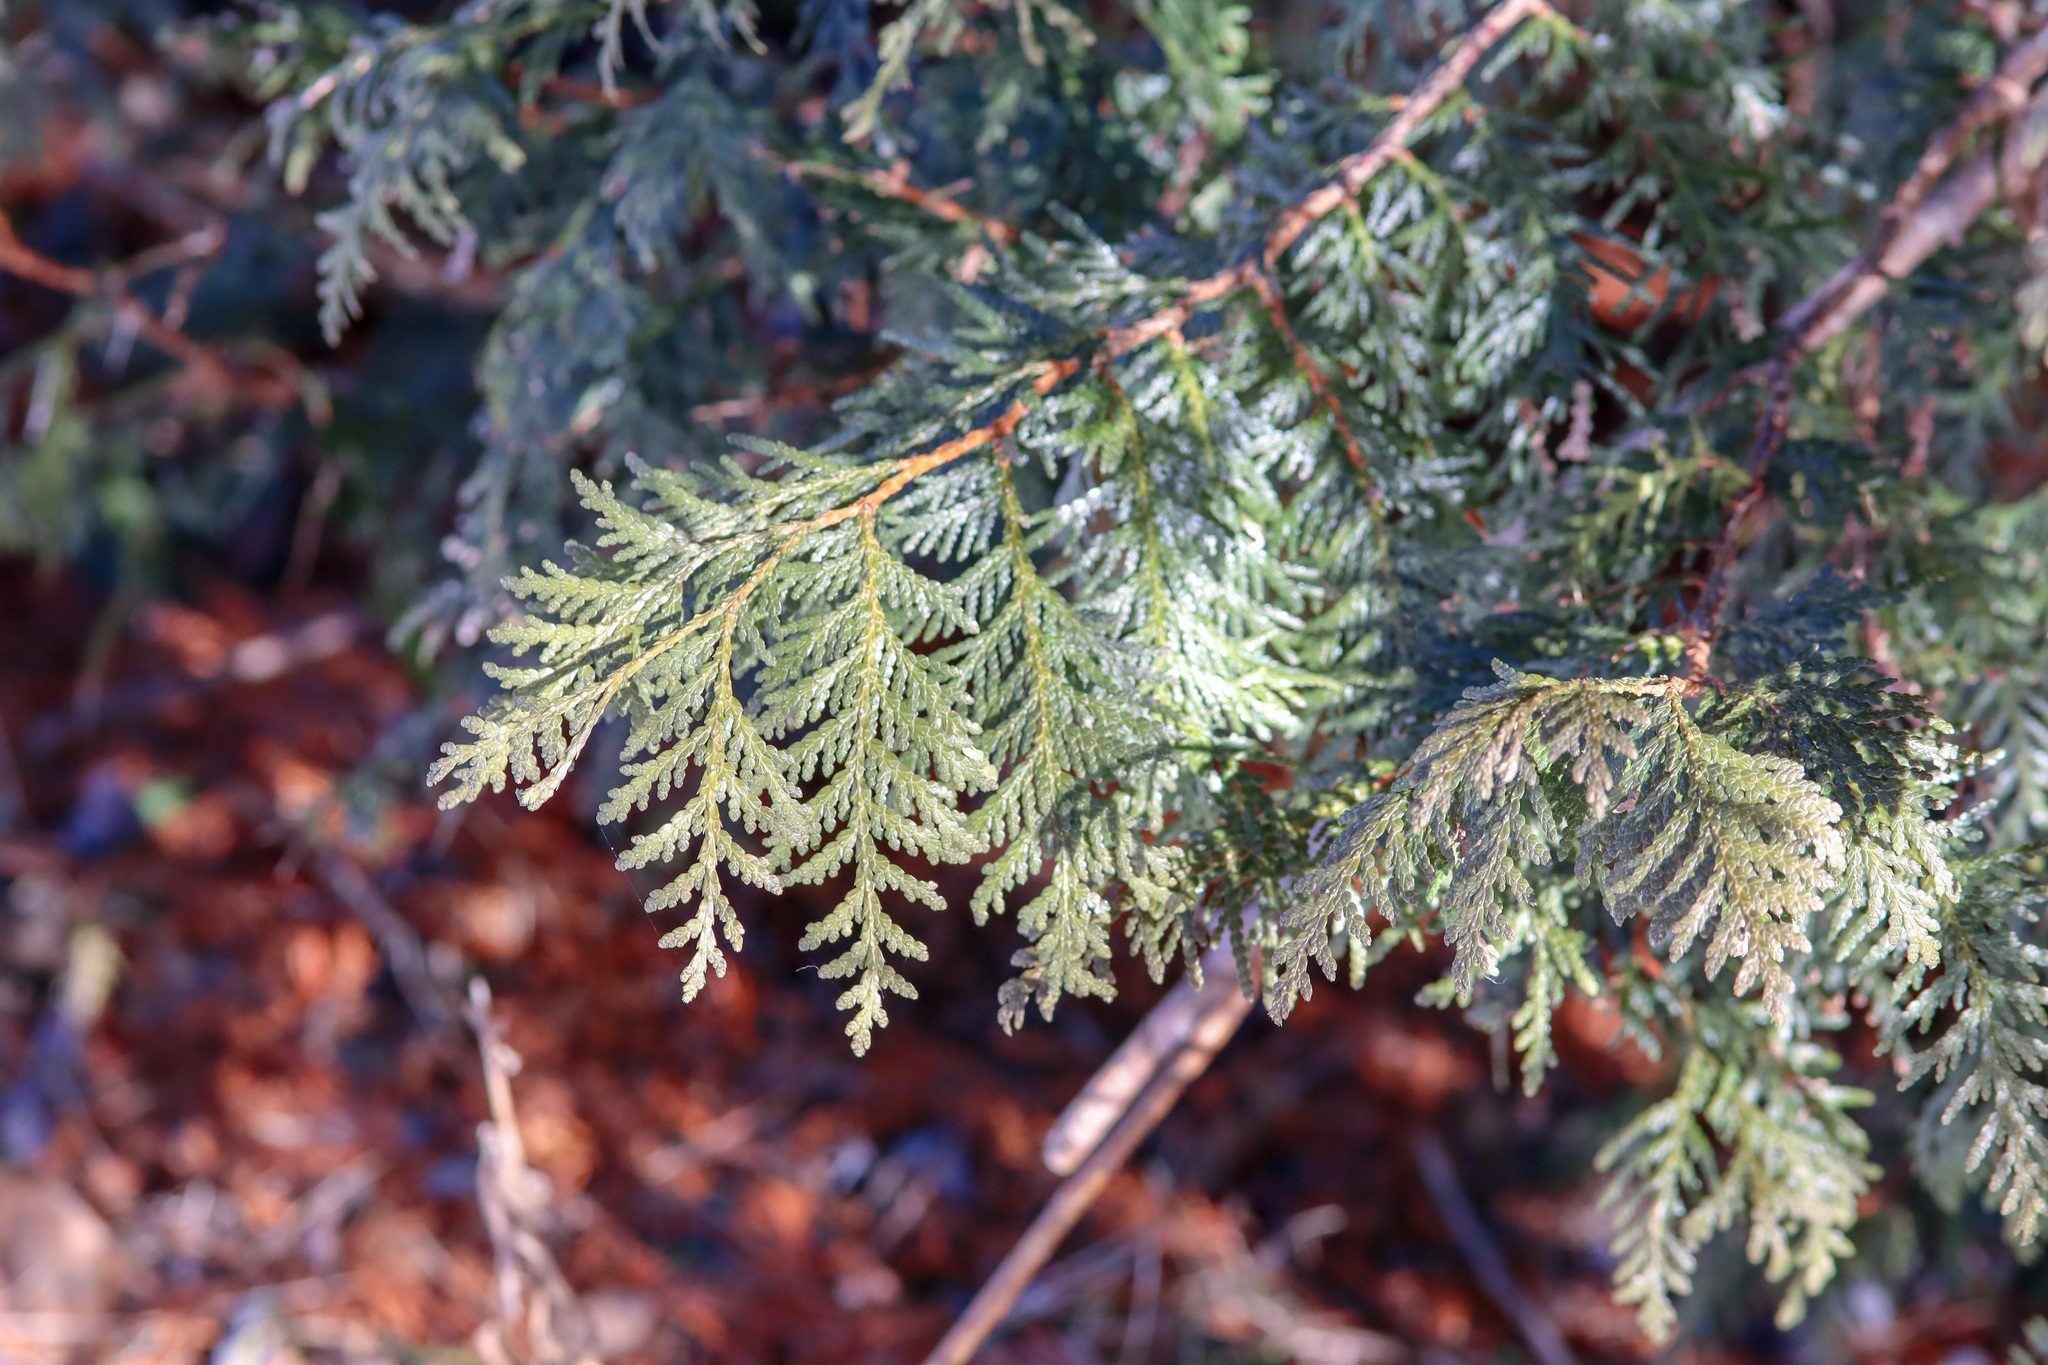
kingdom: Plantae
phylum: Tracheophyta
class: Pinopsida
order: Pinales
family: Cupressaceae
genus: Thuja
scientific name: Thuja occidentalis
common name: Northern white-cedar
